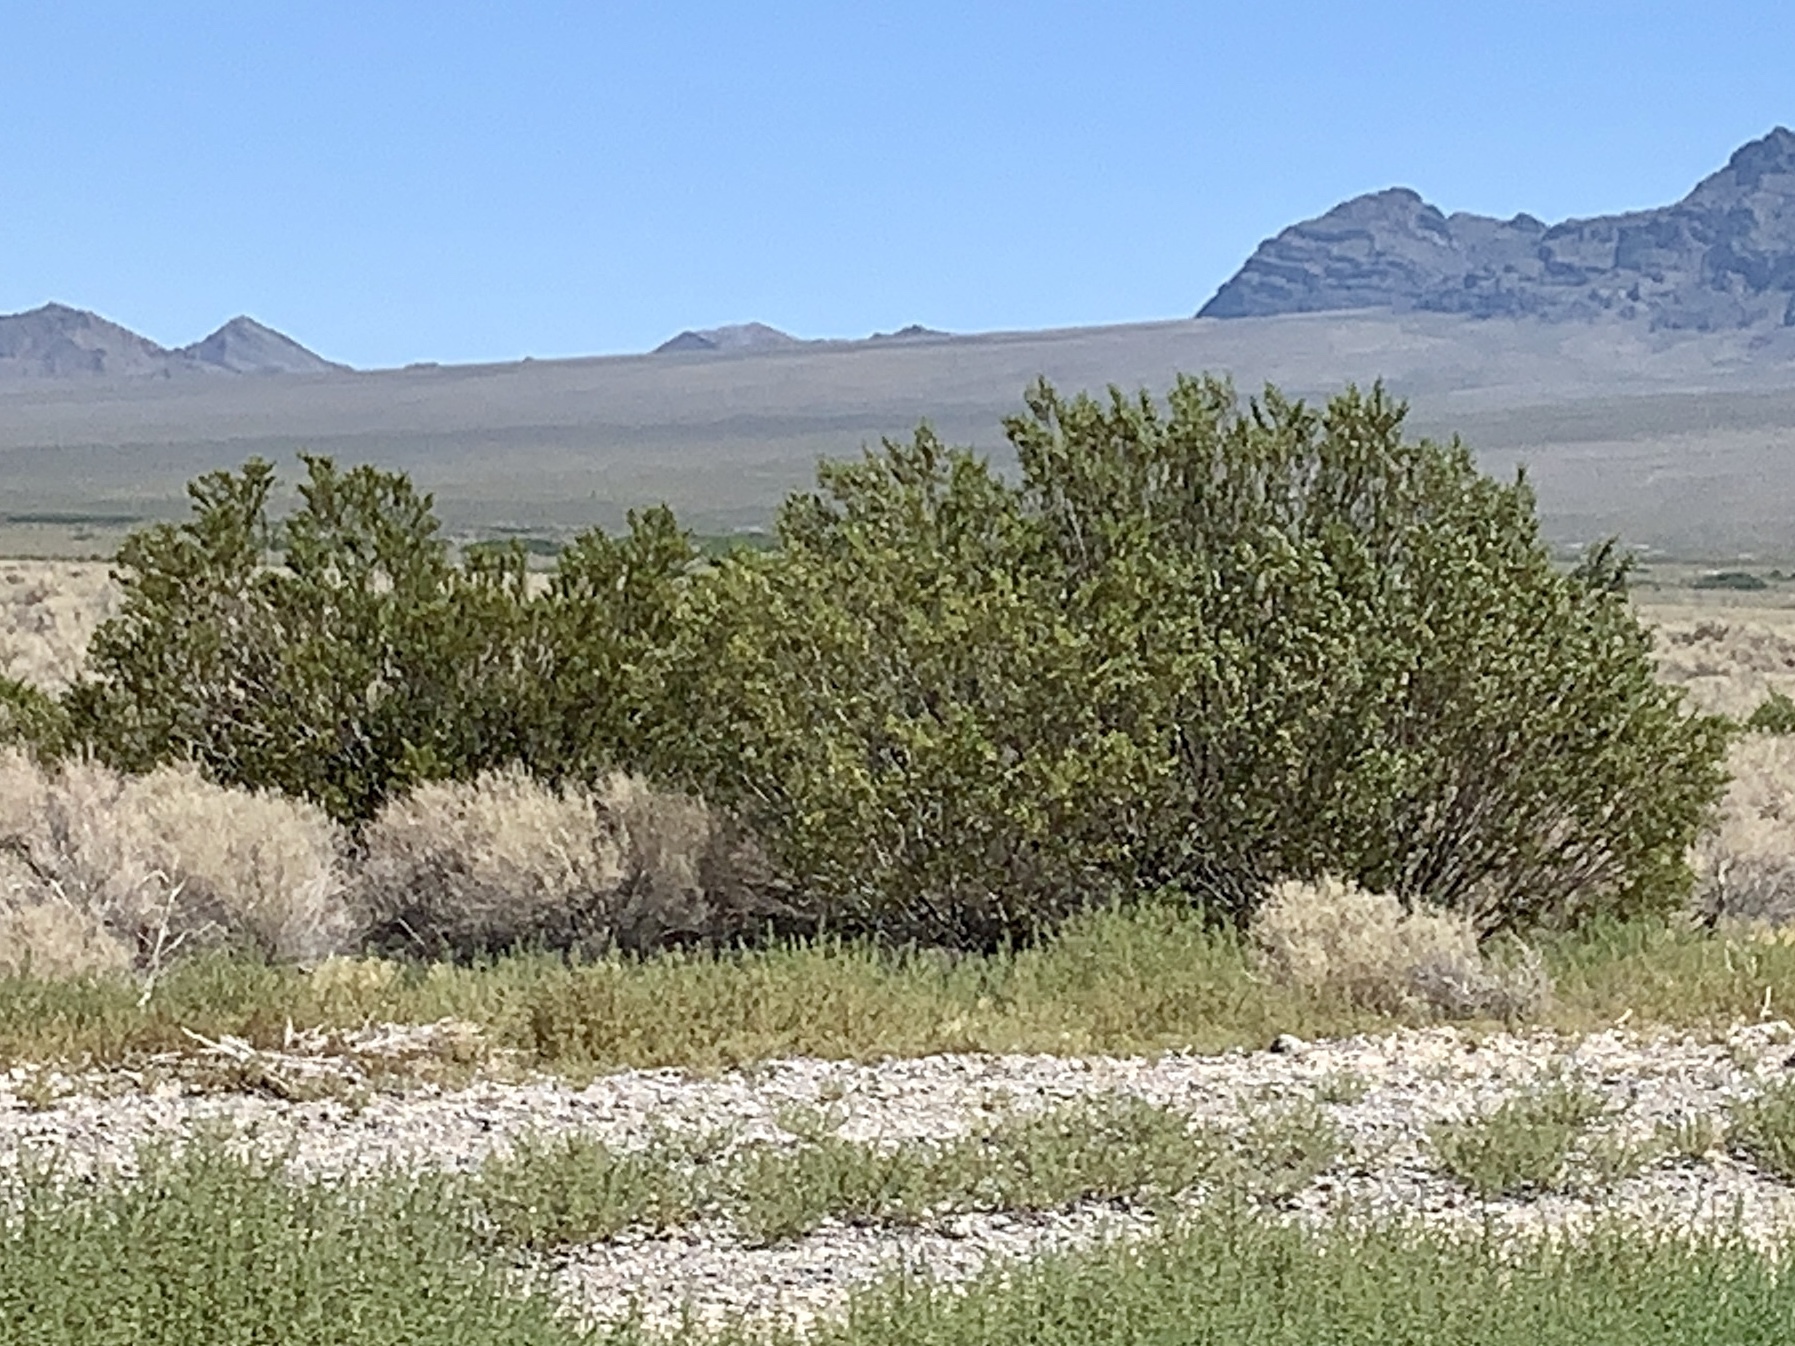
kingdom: Plantae
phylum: Tracheophyta
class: Magnoliopsida
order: Zygophyllales
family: Zygophyllaceae
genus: Larrea
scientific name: Larrea tridentata
